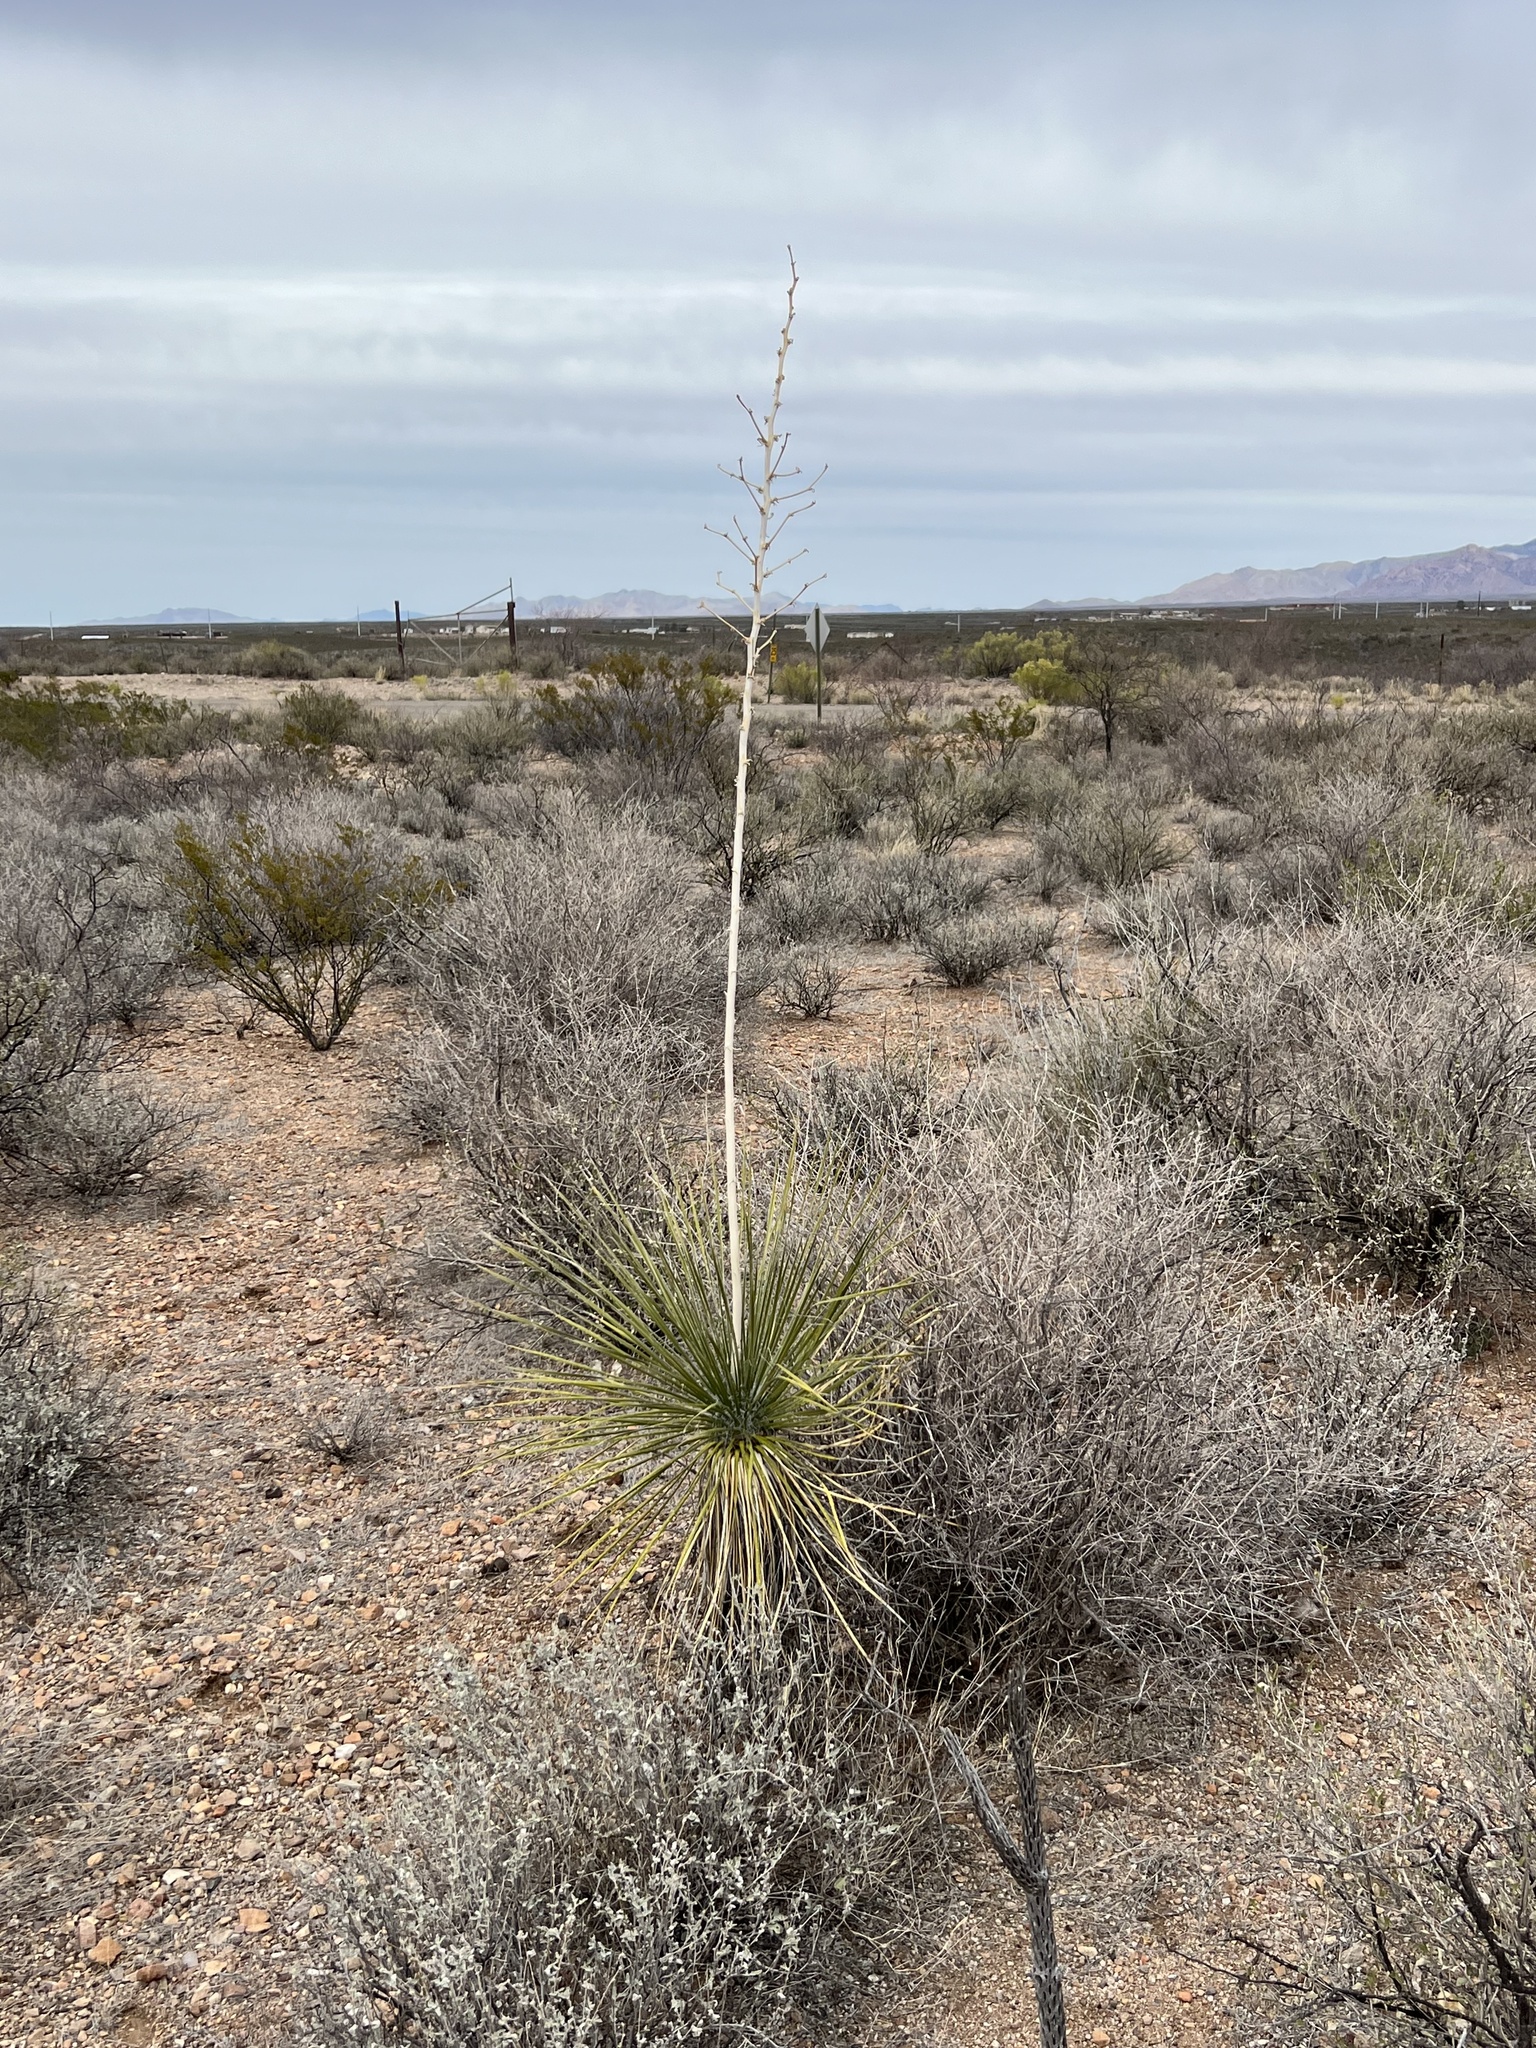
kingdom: Plantae
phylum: Tracheophyta
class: Liliopsida
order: Asparagales
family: Asparagaceae
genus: Yucca
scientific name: Yucca elata
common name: Palmella
